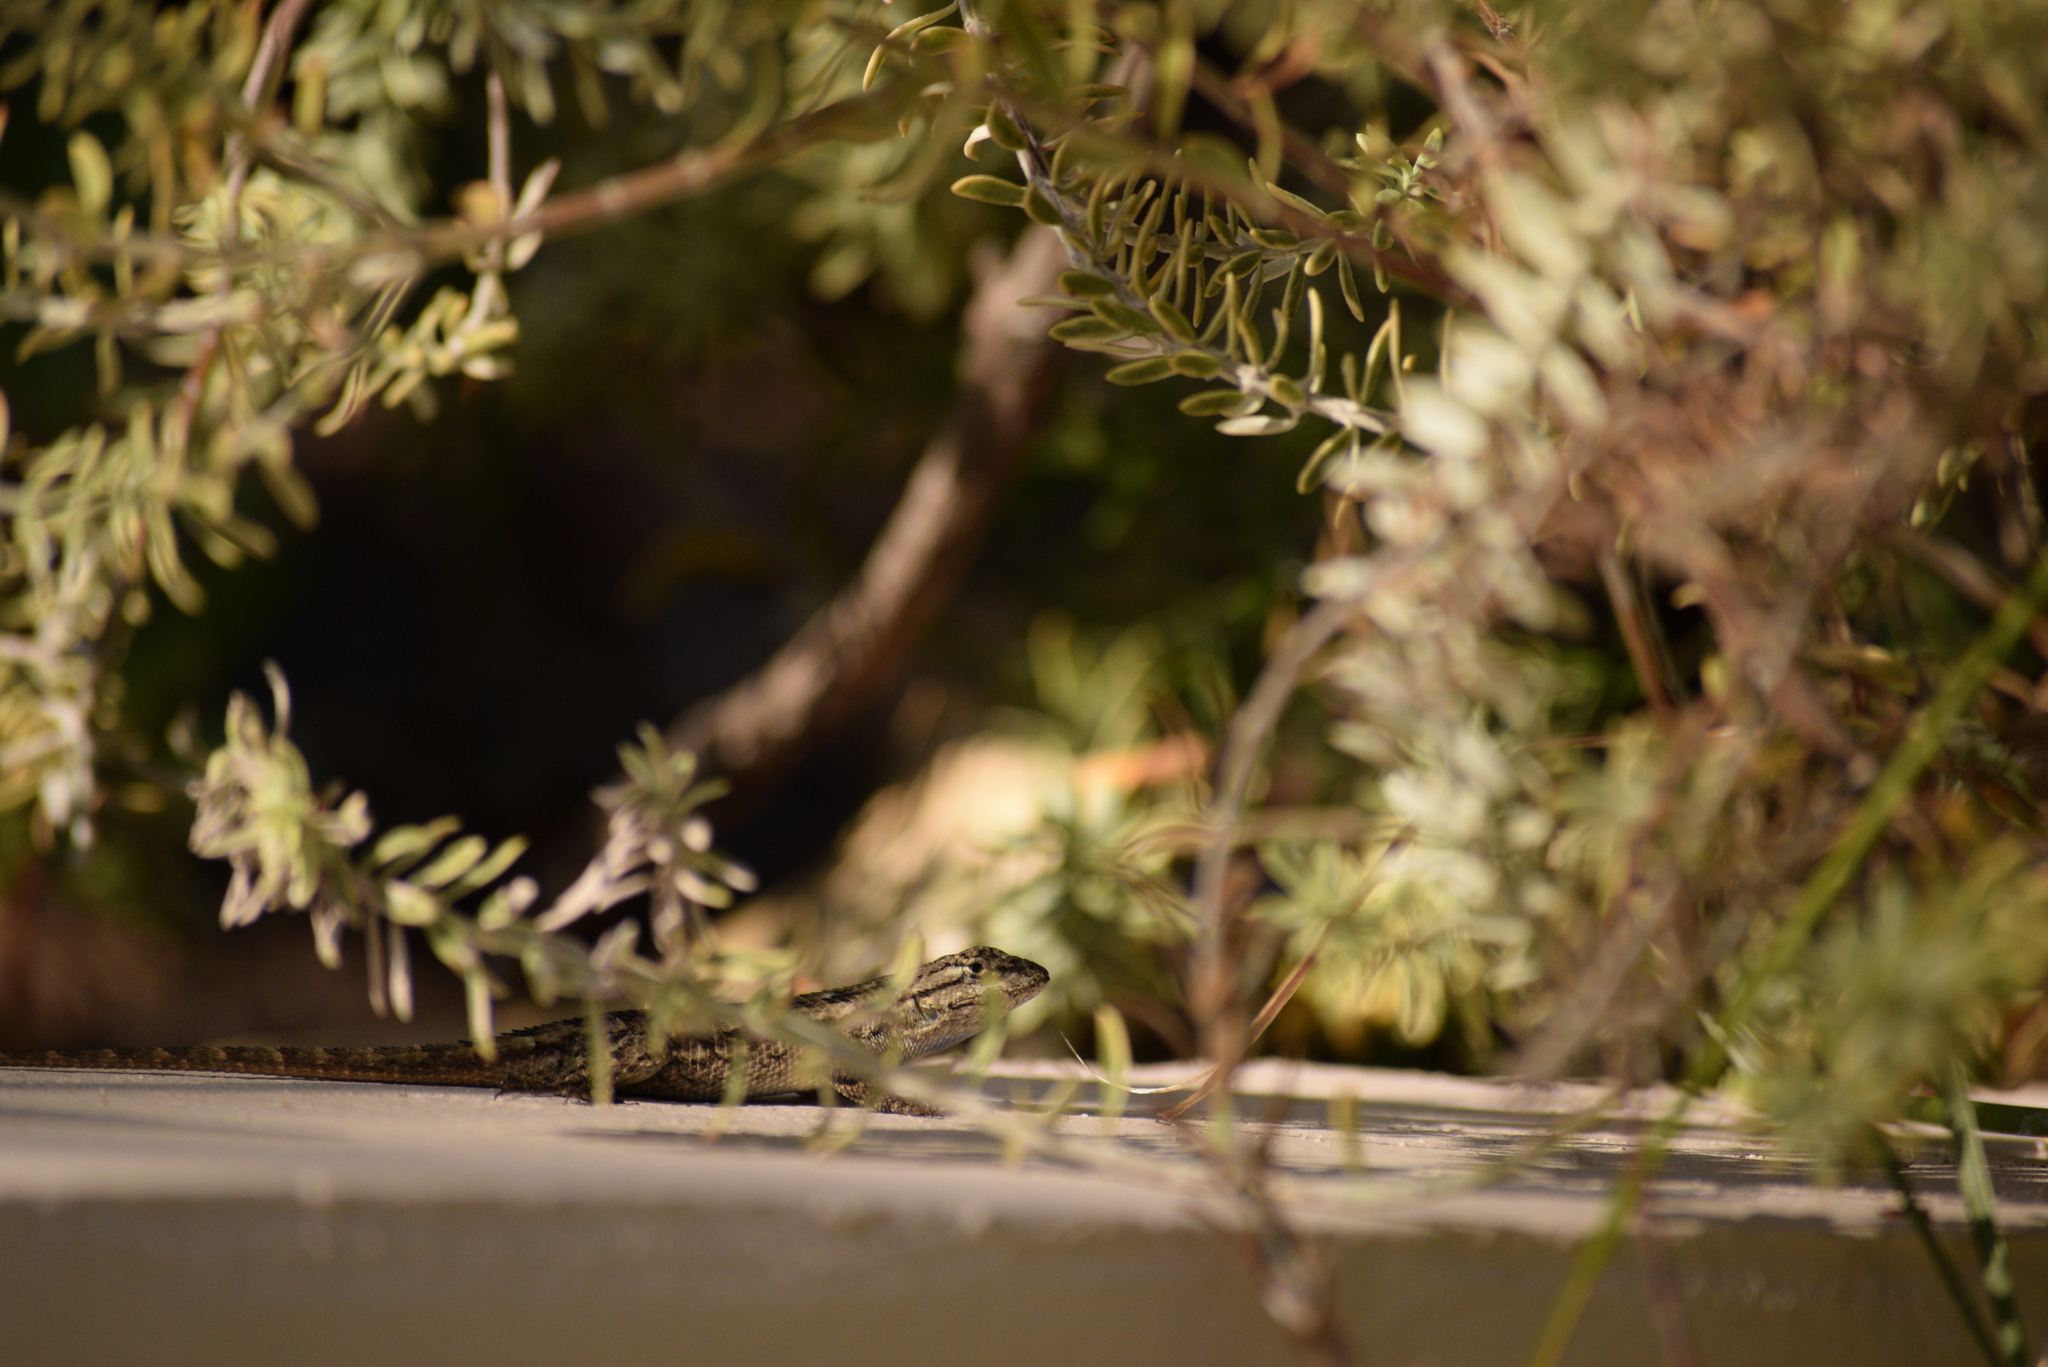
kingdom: Animalia
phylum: Chordata
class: Squamata
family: Phrynosomatidae
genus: Sceloporus
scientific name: Sceloporus occidentalis
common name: Western fence lizard
